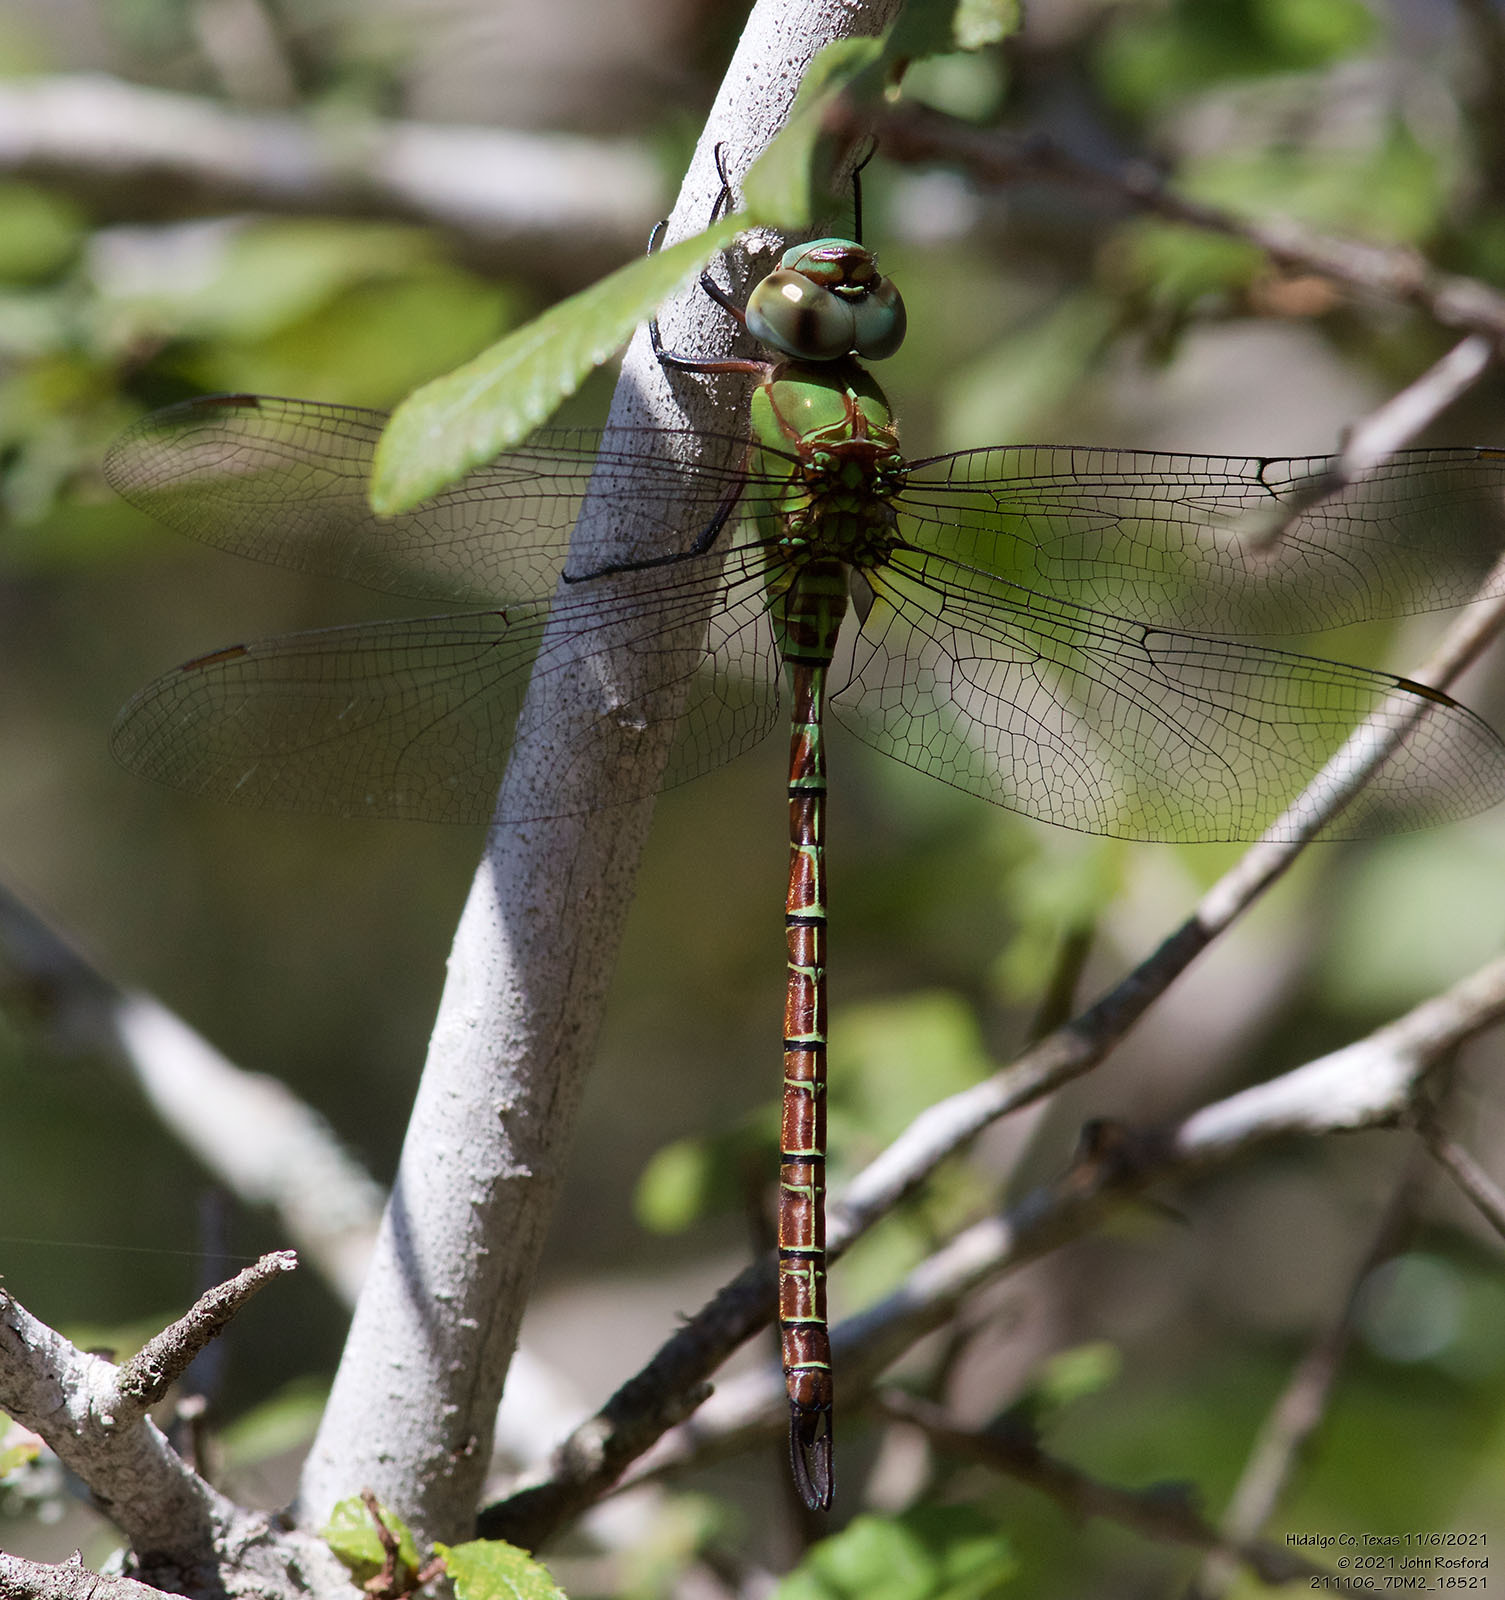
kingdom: Animalia
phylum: Arthropoda
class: Insecta
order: Odonata
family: Aeshnidae
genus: Coryphaeschna
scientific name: Coryphaeschna adnexa
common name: Blue-faced darner
